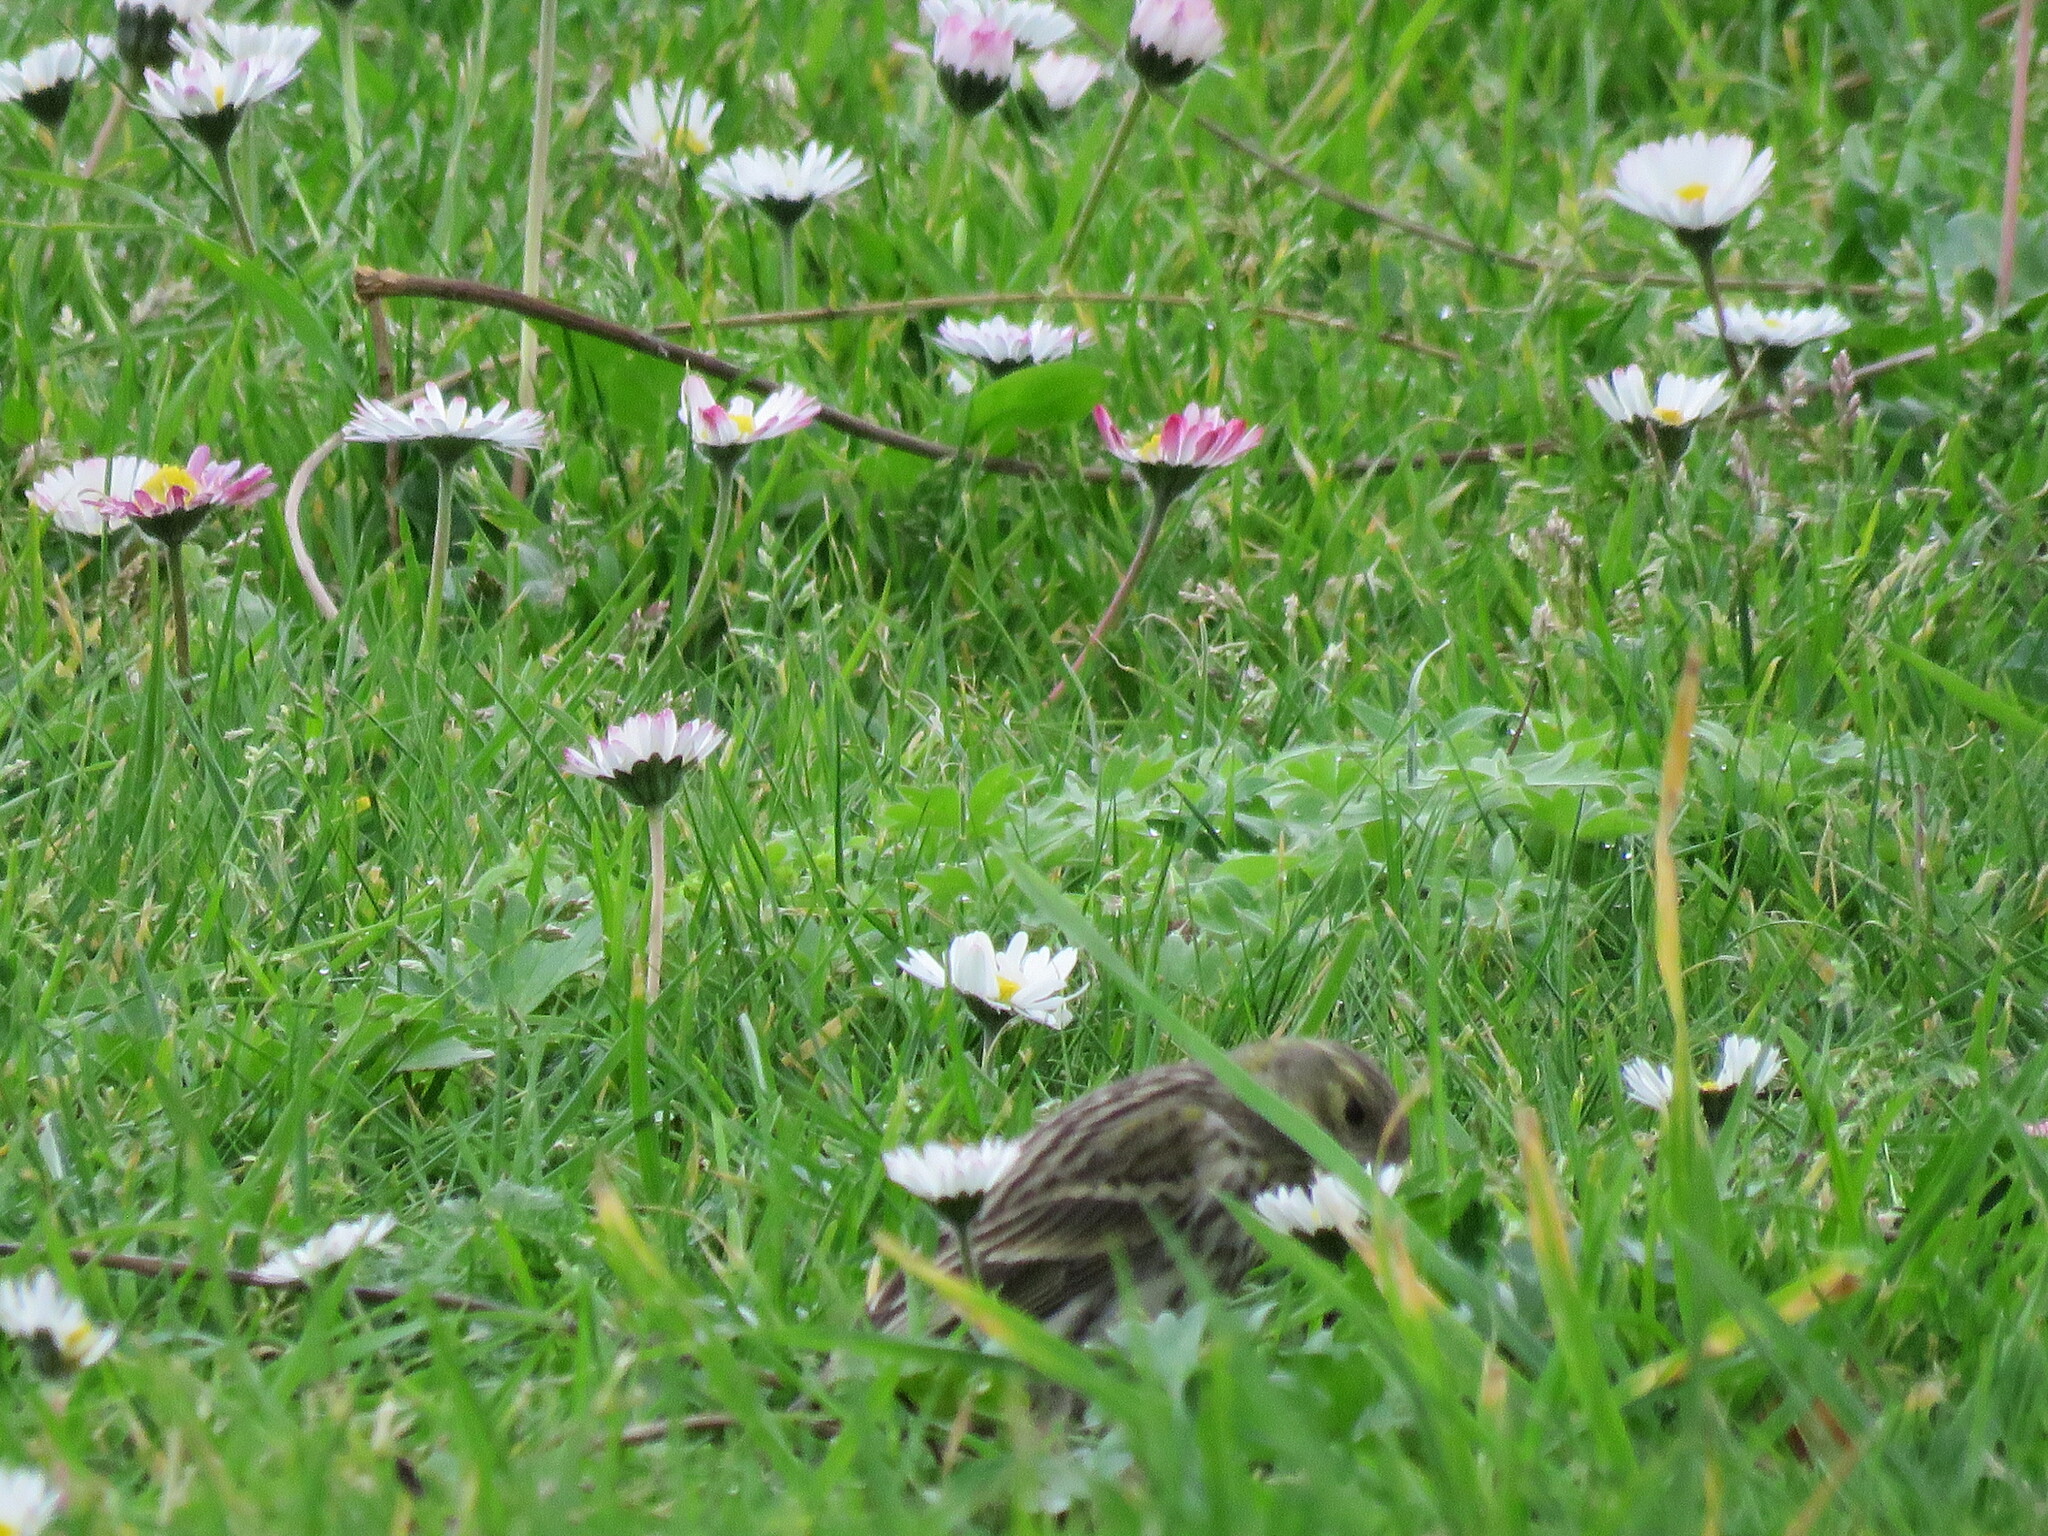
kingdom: Animalia
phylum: Chordata
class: Aves
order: Passeriformes
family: Fringillidae
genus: Serinus
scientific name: Serinus serinus
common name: European serin
